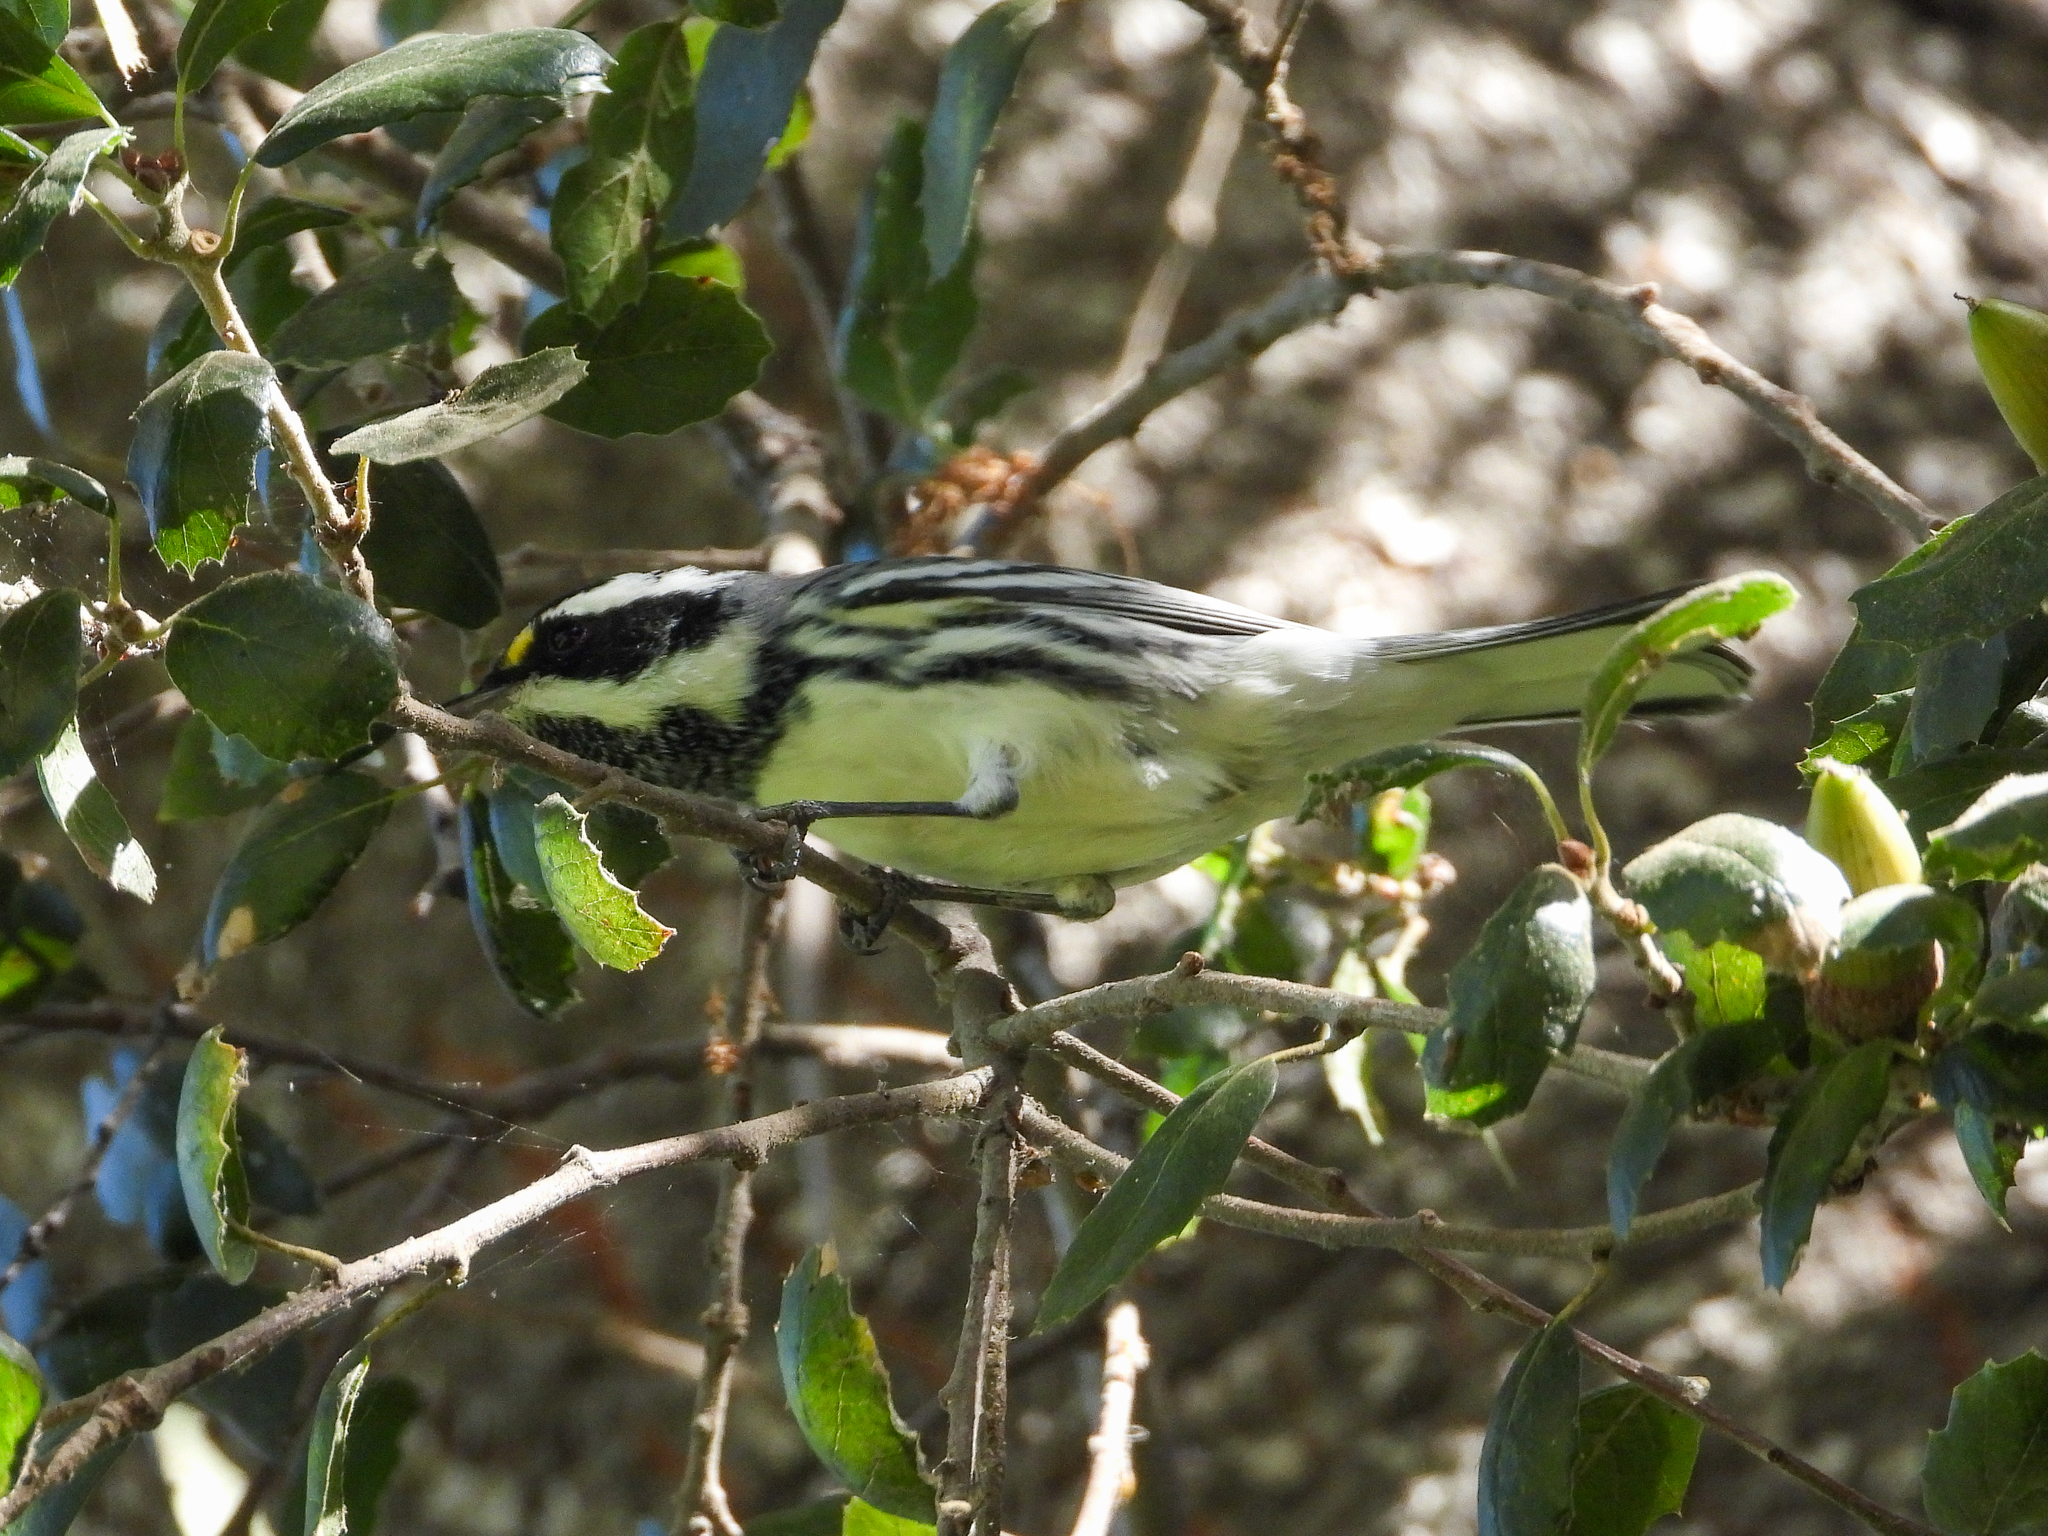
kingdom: Animalia
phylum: Chordata
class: Aves
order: Passeriformes
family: Parulidae
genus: Setophaga
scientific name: Setophaga nigrescens
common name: Black-throated gray warbler
